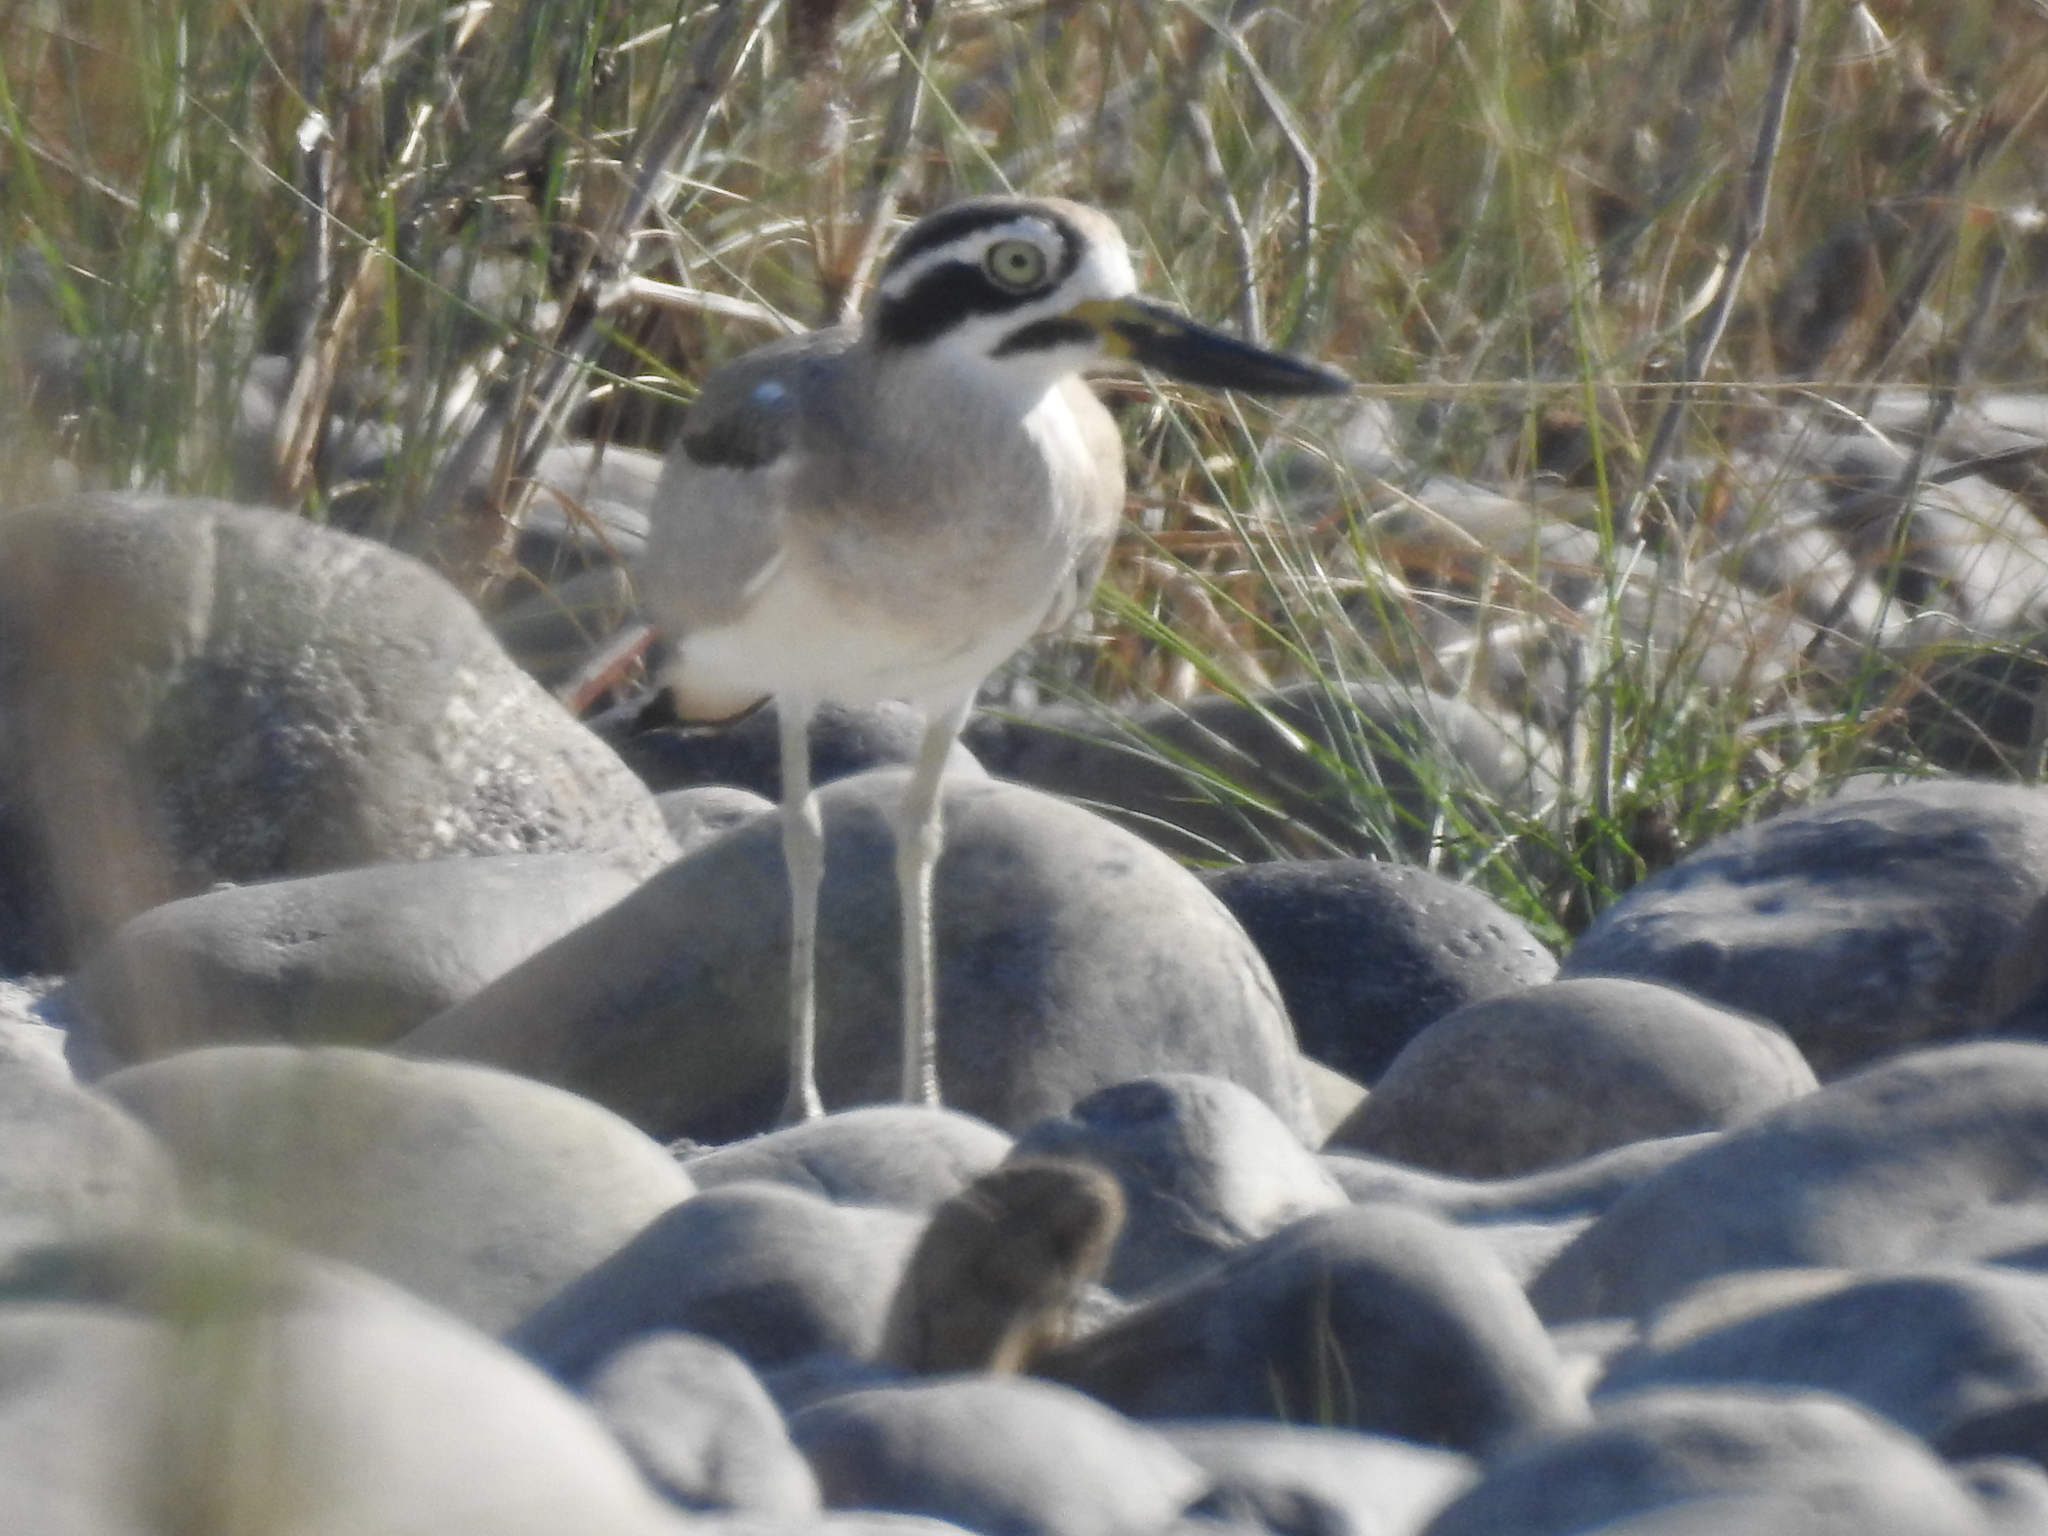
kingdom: Animalia
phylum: Chordata
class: Aves
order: Charadriiformes
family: Burhinidae
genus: Esacus
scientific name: Esacus recurvirostris
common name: Great stone-curlew
